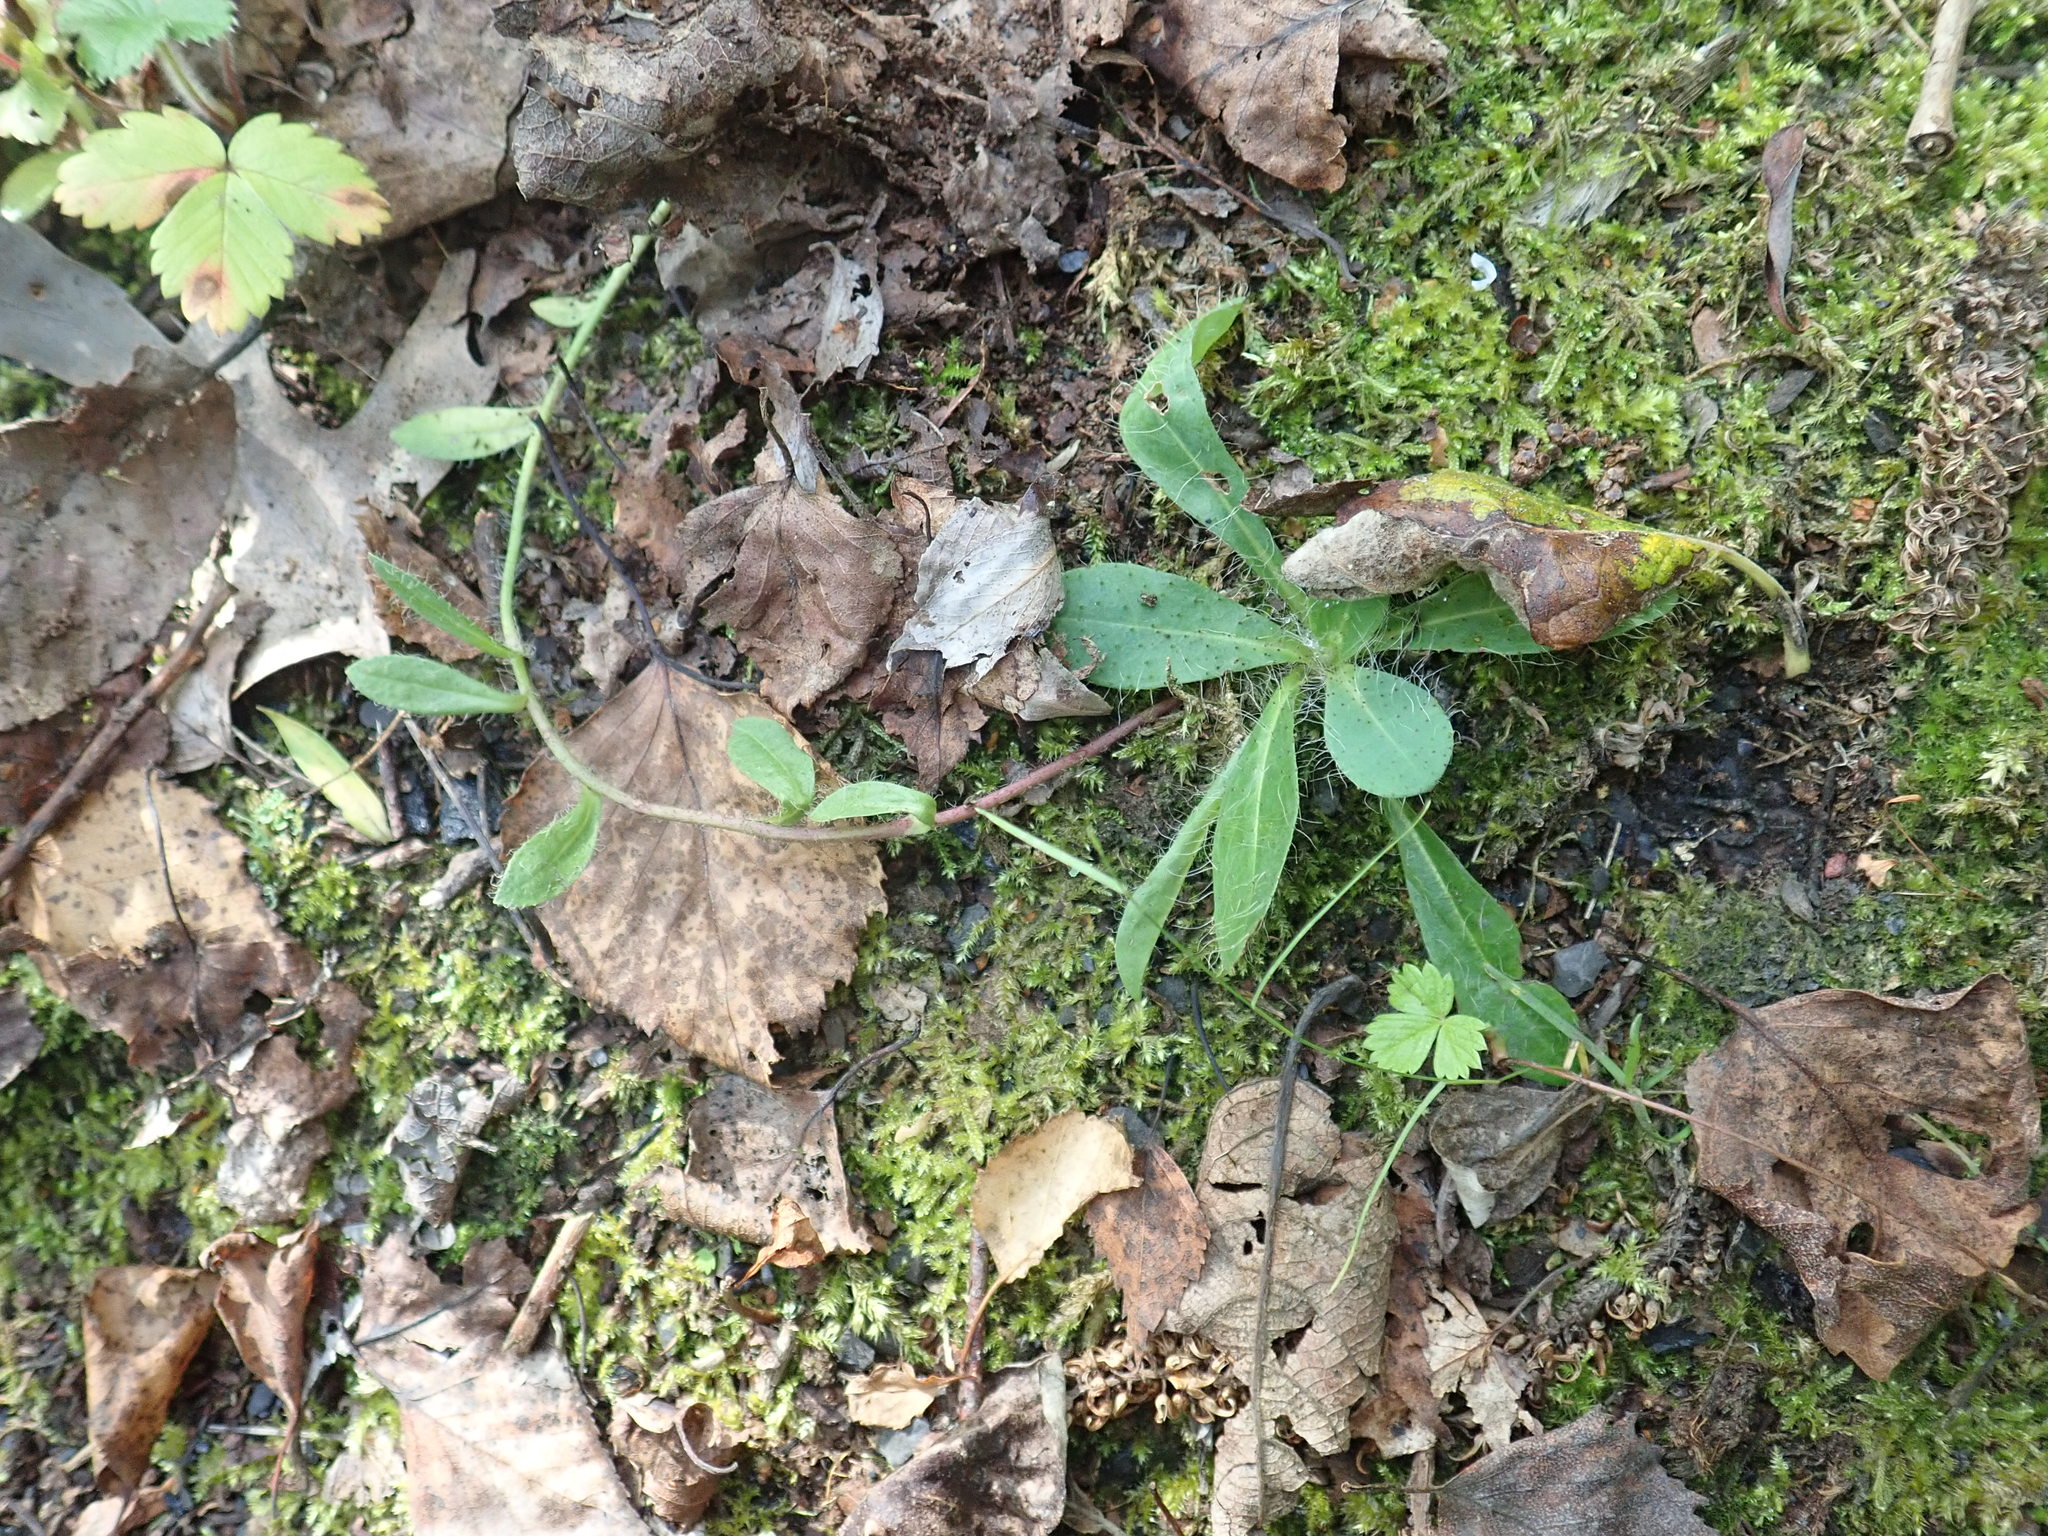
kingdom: Plantae
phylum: Tracheophyta
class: Magnoliopsida
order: Asterales
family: Asteraceae
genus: Pilosella
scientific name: Pilosella bauhini
